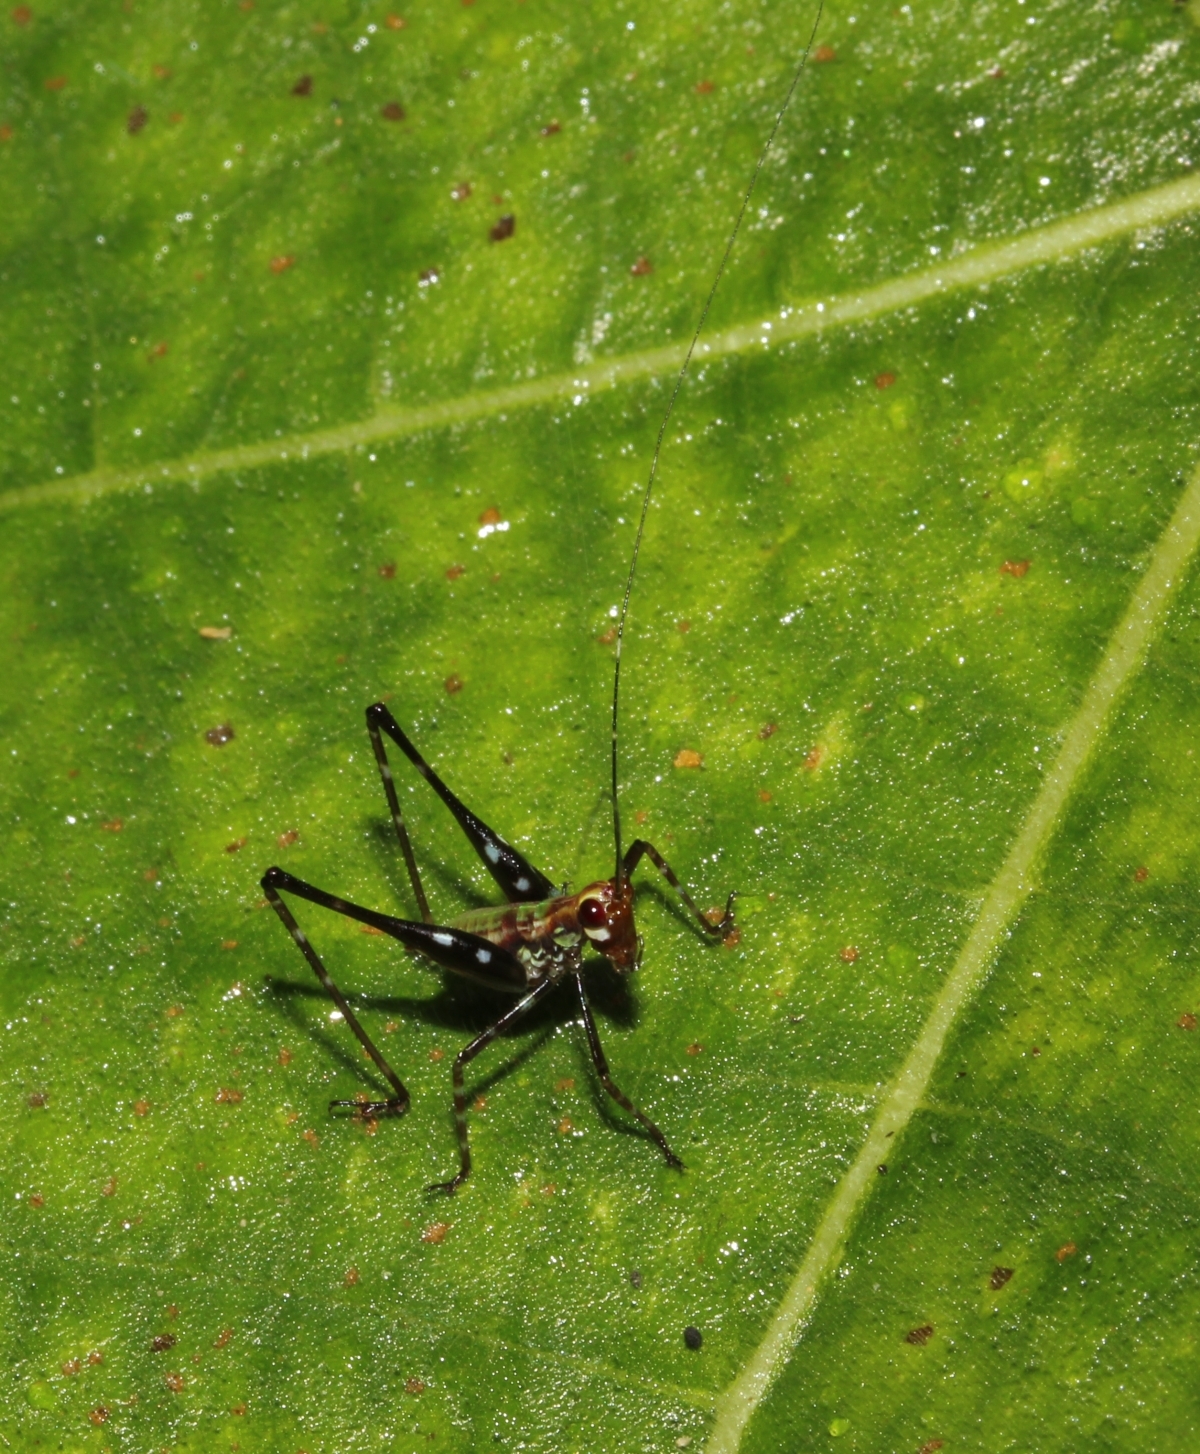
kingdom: Animalia
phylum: Arthropoda
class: Insecta
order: Orthoptera
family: Tettigoniidae
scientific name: Tettigoniidae
